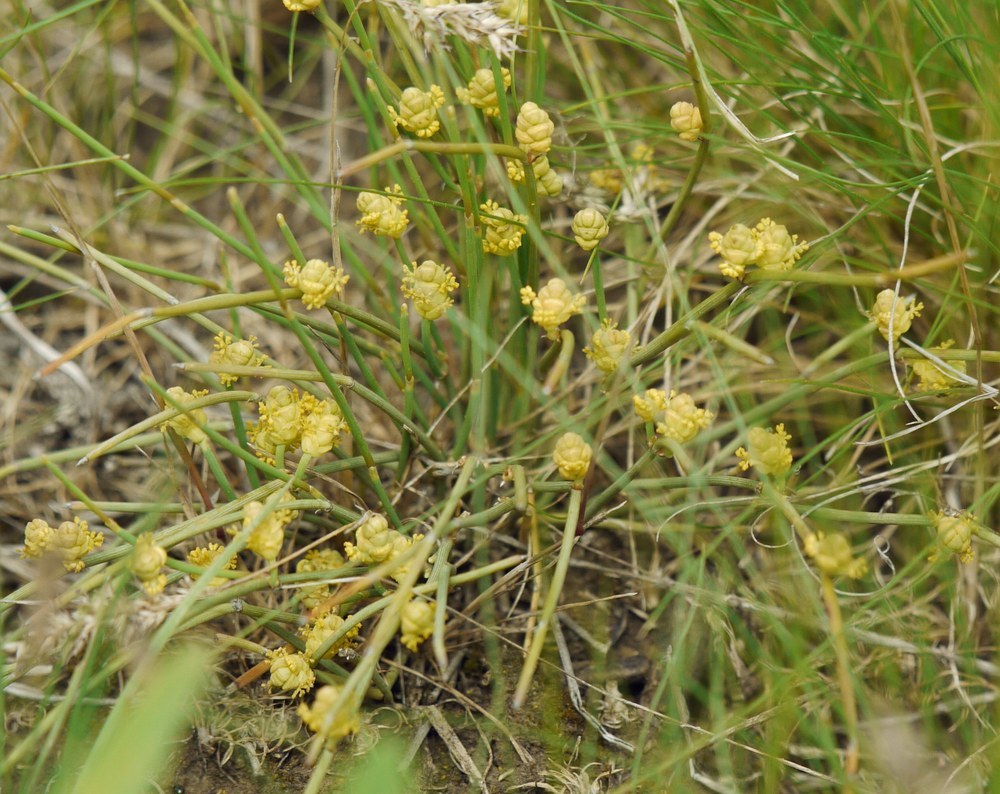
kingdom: Plantae
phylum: Tracheophyta
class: Gnetopsida
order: Ephedrales
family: Ephedraceae
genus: Ephedra
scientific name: Ephedra distachya
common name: Sea grape
